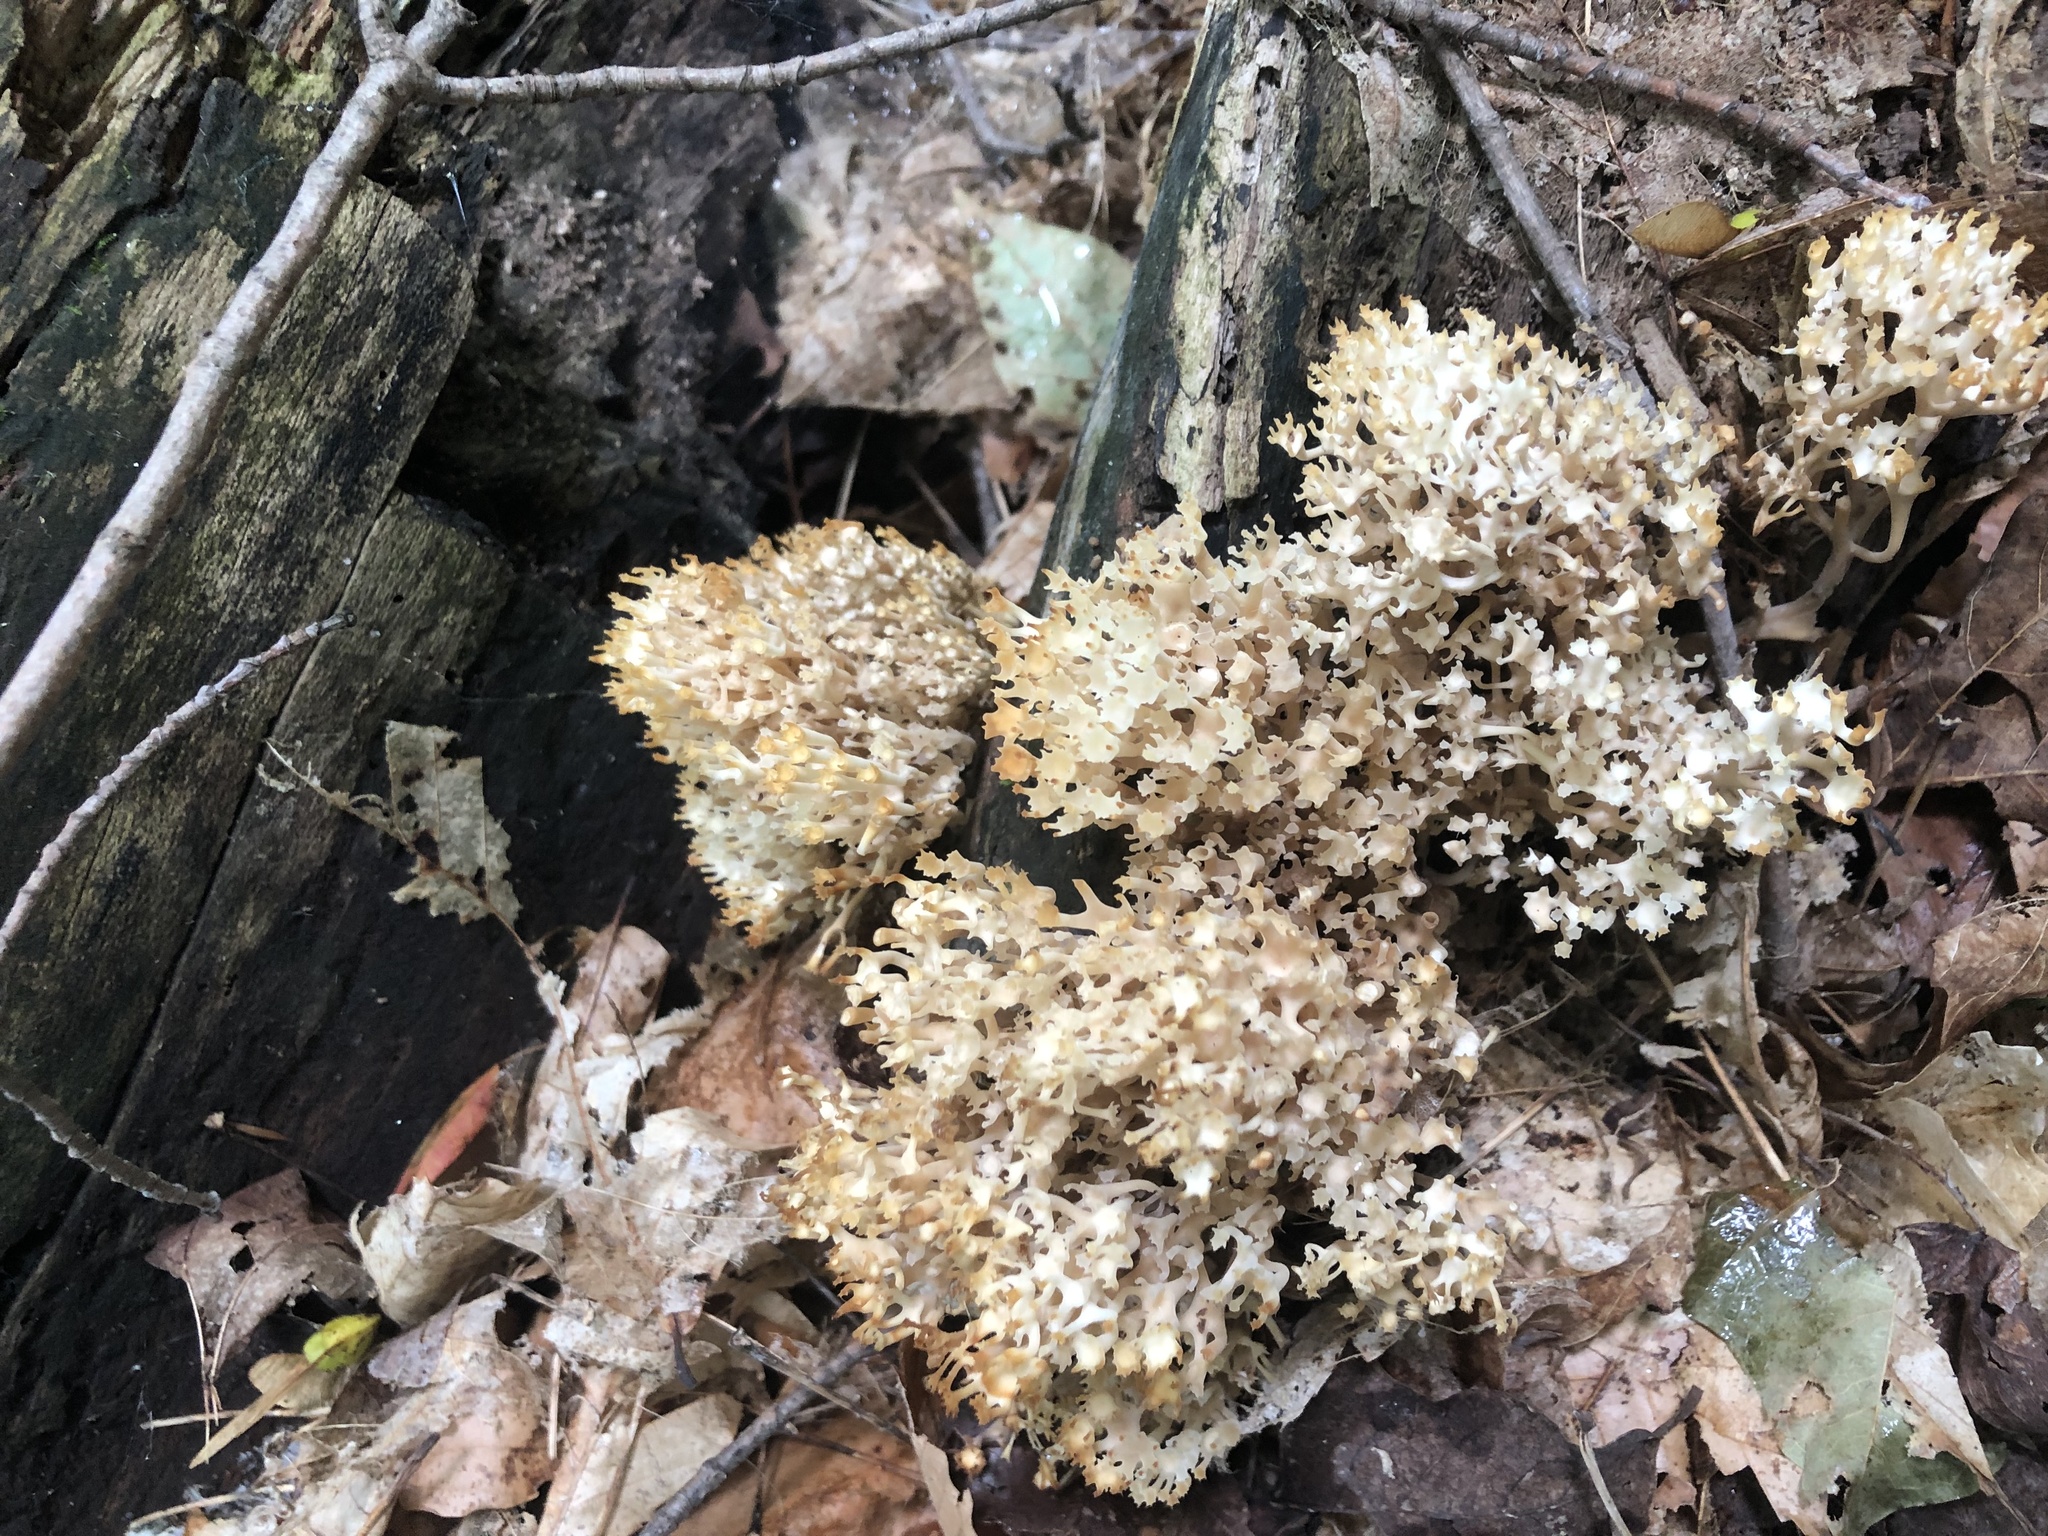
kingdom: Fungi
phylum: Basidiomycota
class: Agaricomycetes
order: Russulales
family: Auriscalpiaceae
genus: Artomyces
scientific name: Artomyces pyxidatus
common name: Crown-tipped coral fungus
